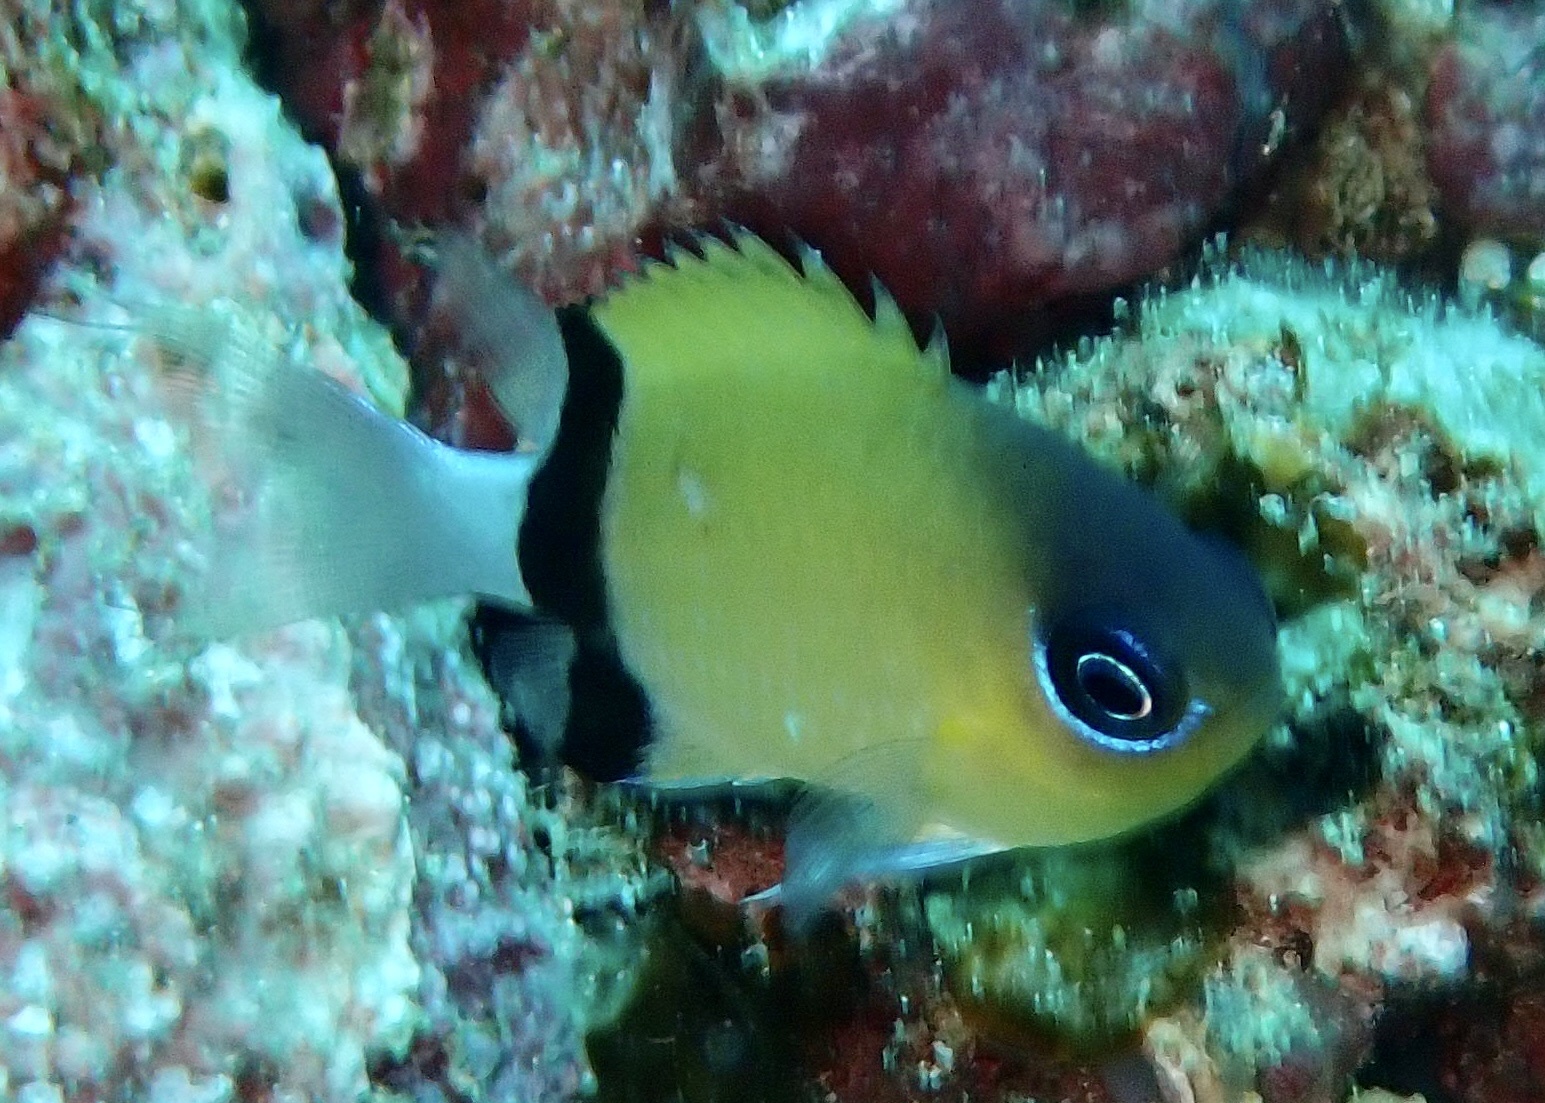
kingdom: Animalia
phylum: Chordata
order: Perciformes
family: Pomacentridae
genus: Chromis
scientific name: Chromis retrofasciata
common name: Black-bar chromis
